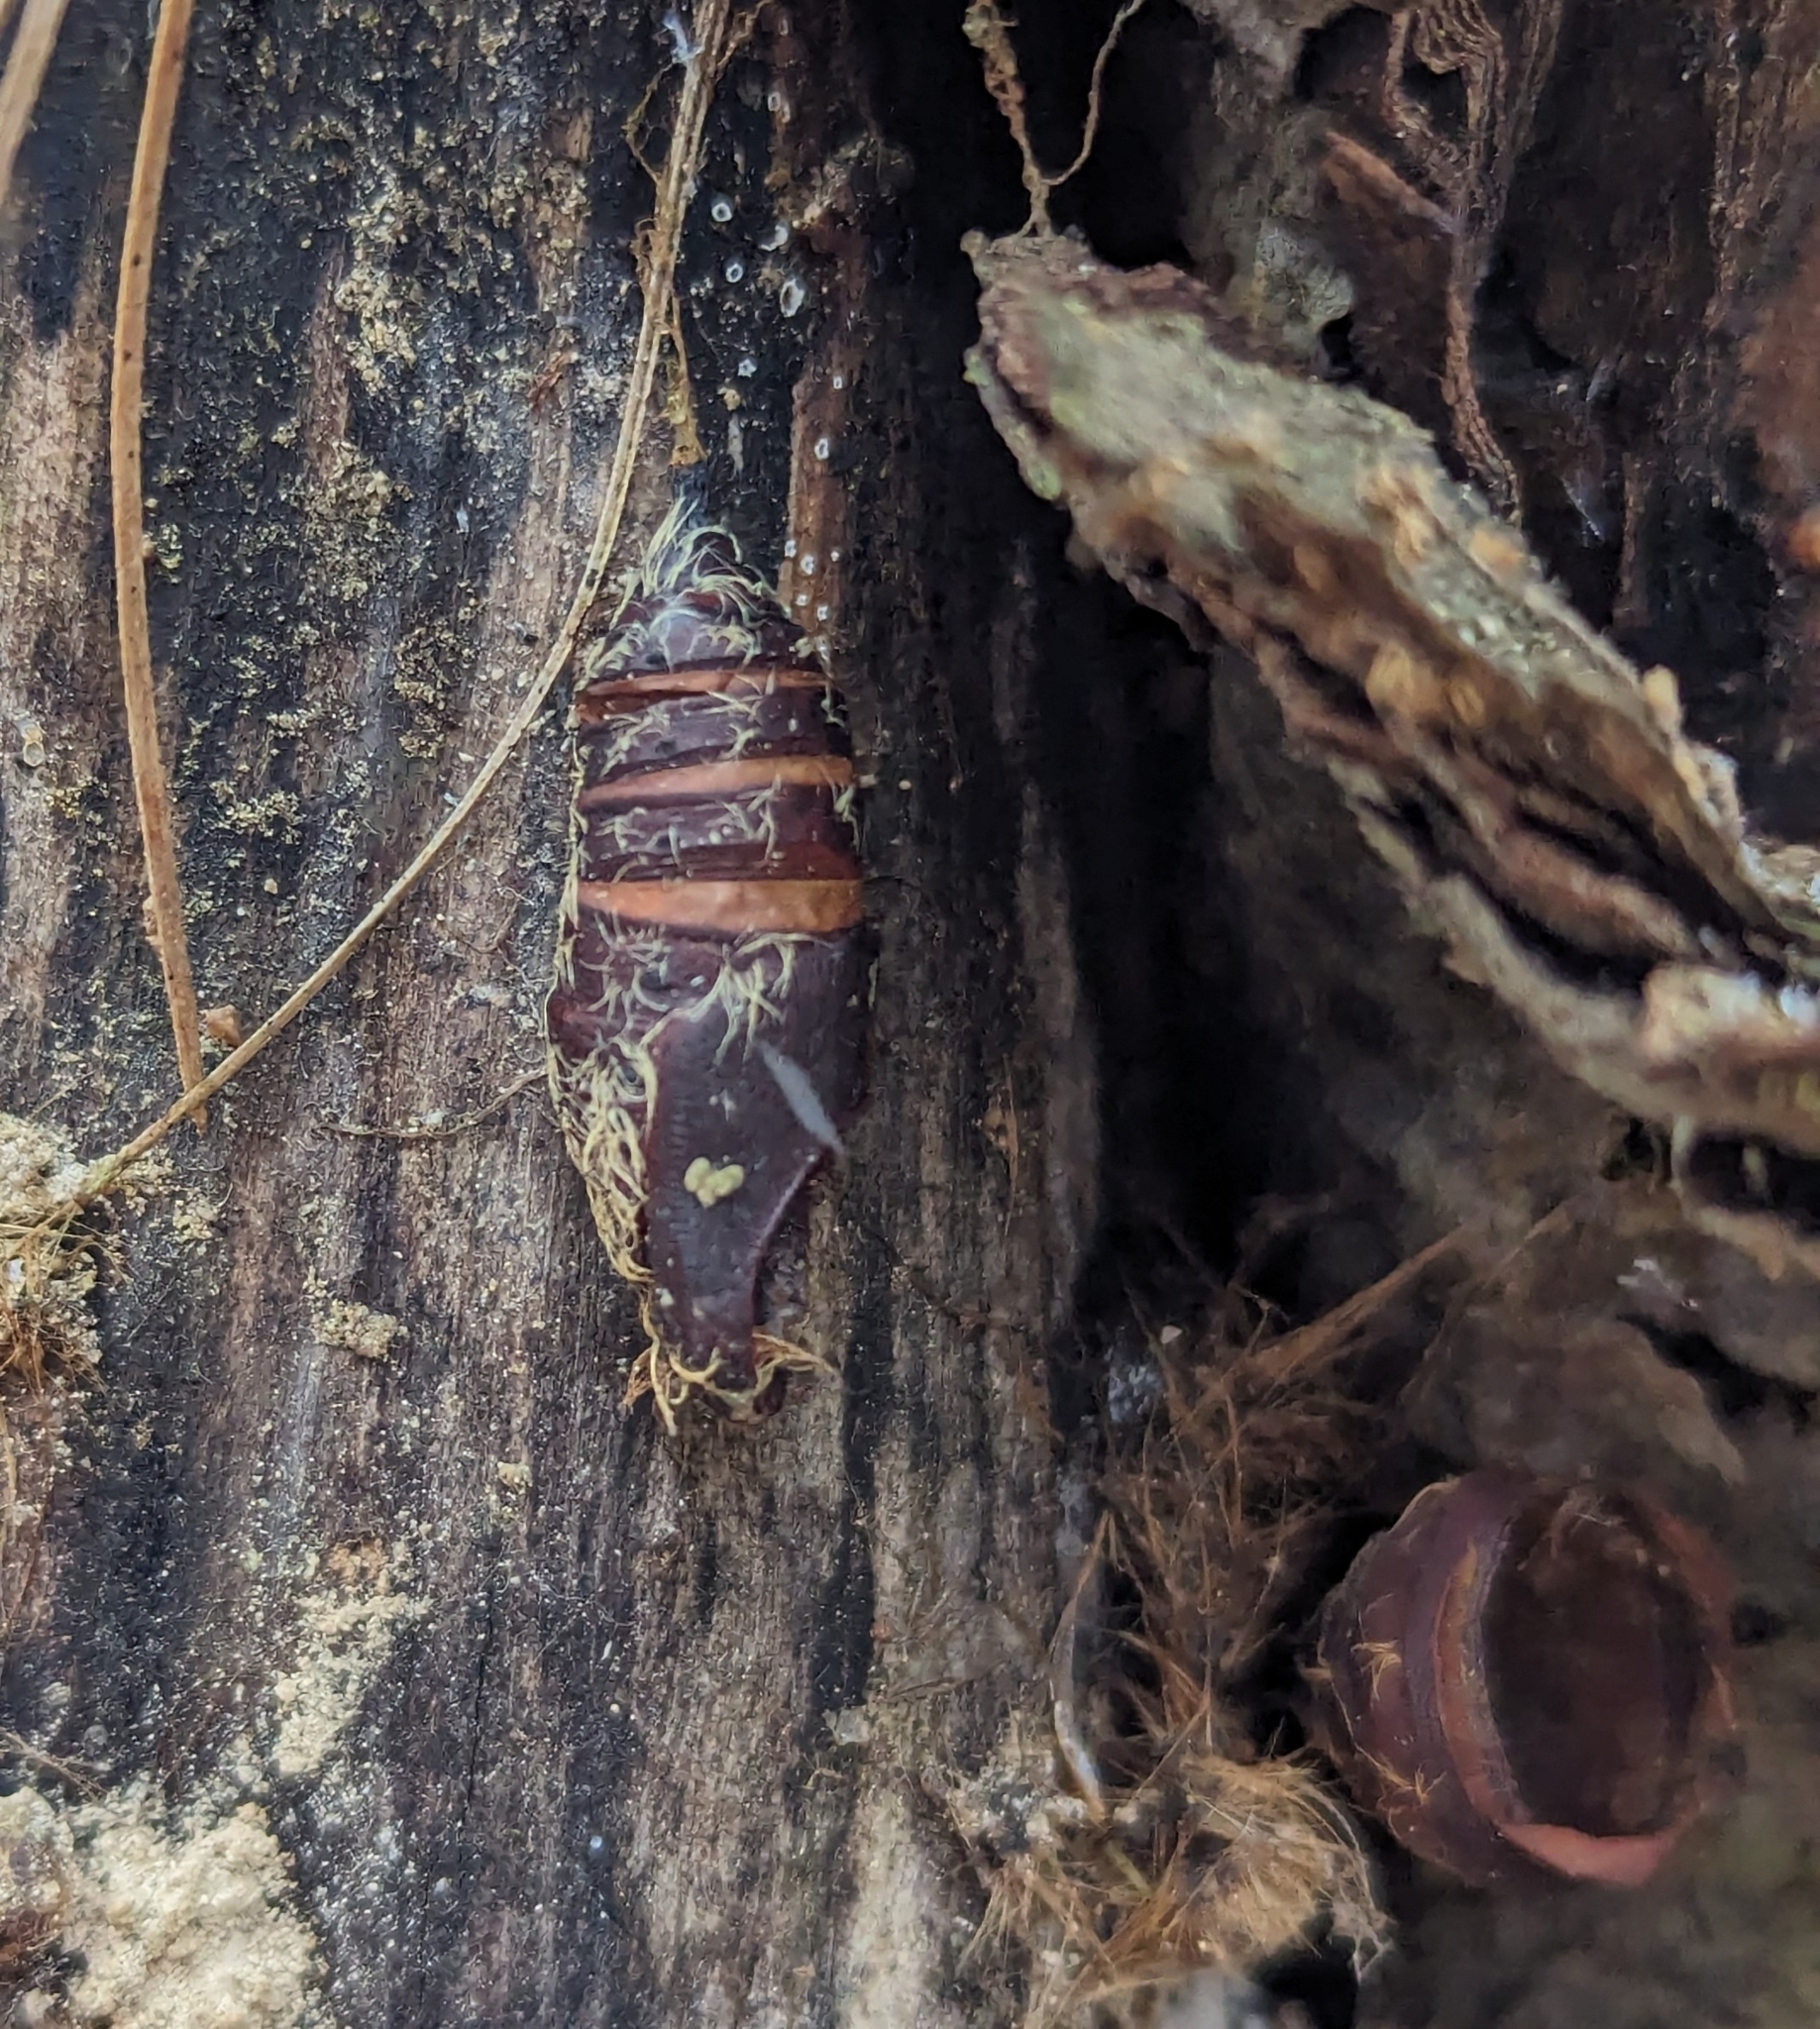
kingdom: Animalia
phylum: Arthropoda
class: Insecta
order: Lepidoptera
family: Erebidae
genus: Lymantria
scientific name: Lymantria dispar
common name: Gypsy moth
